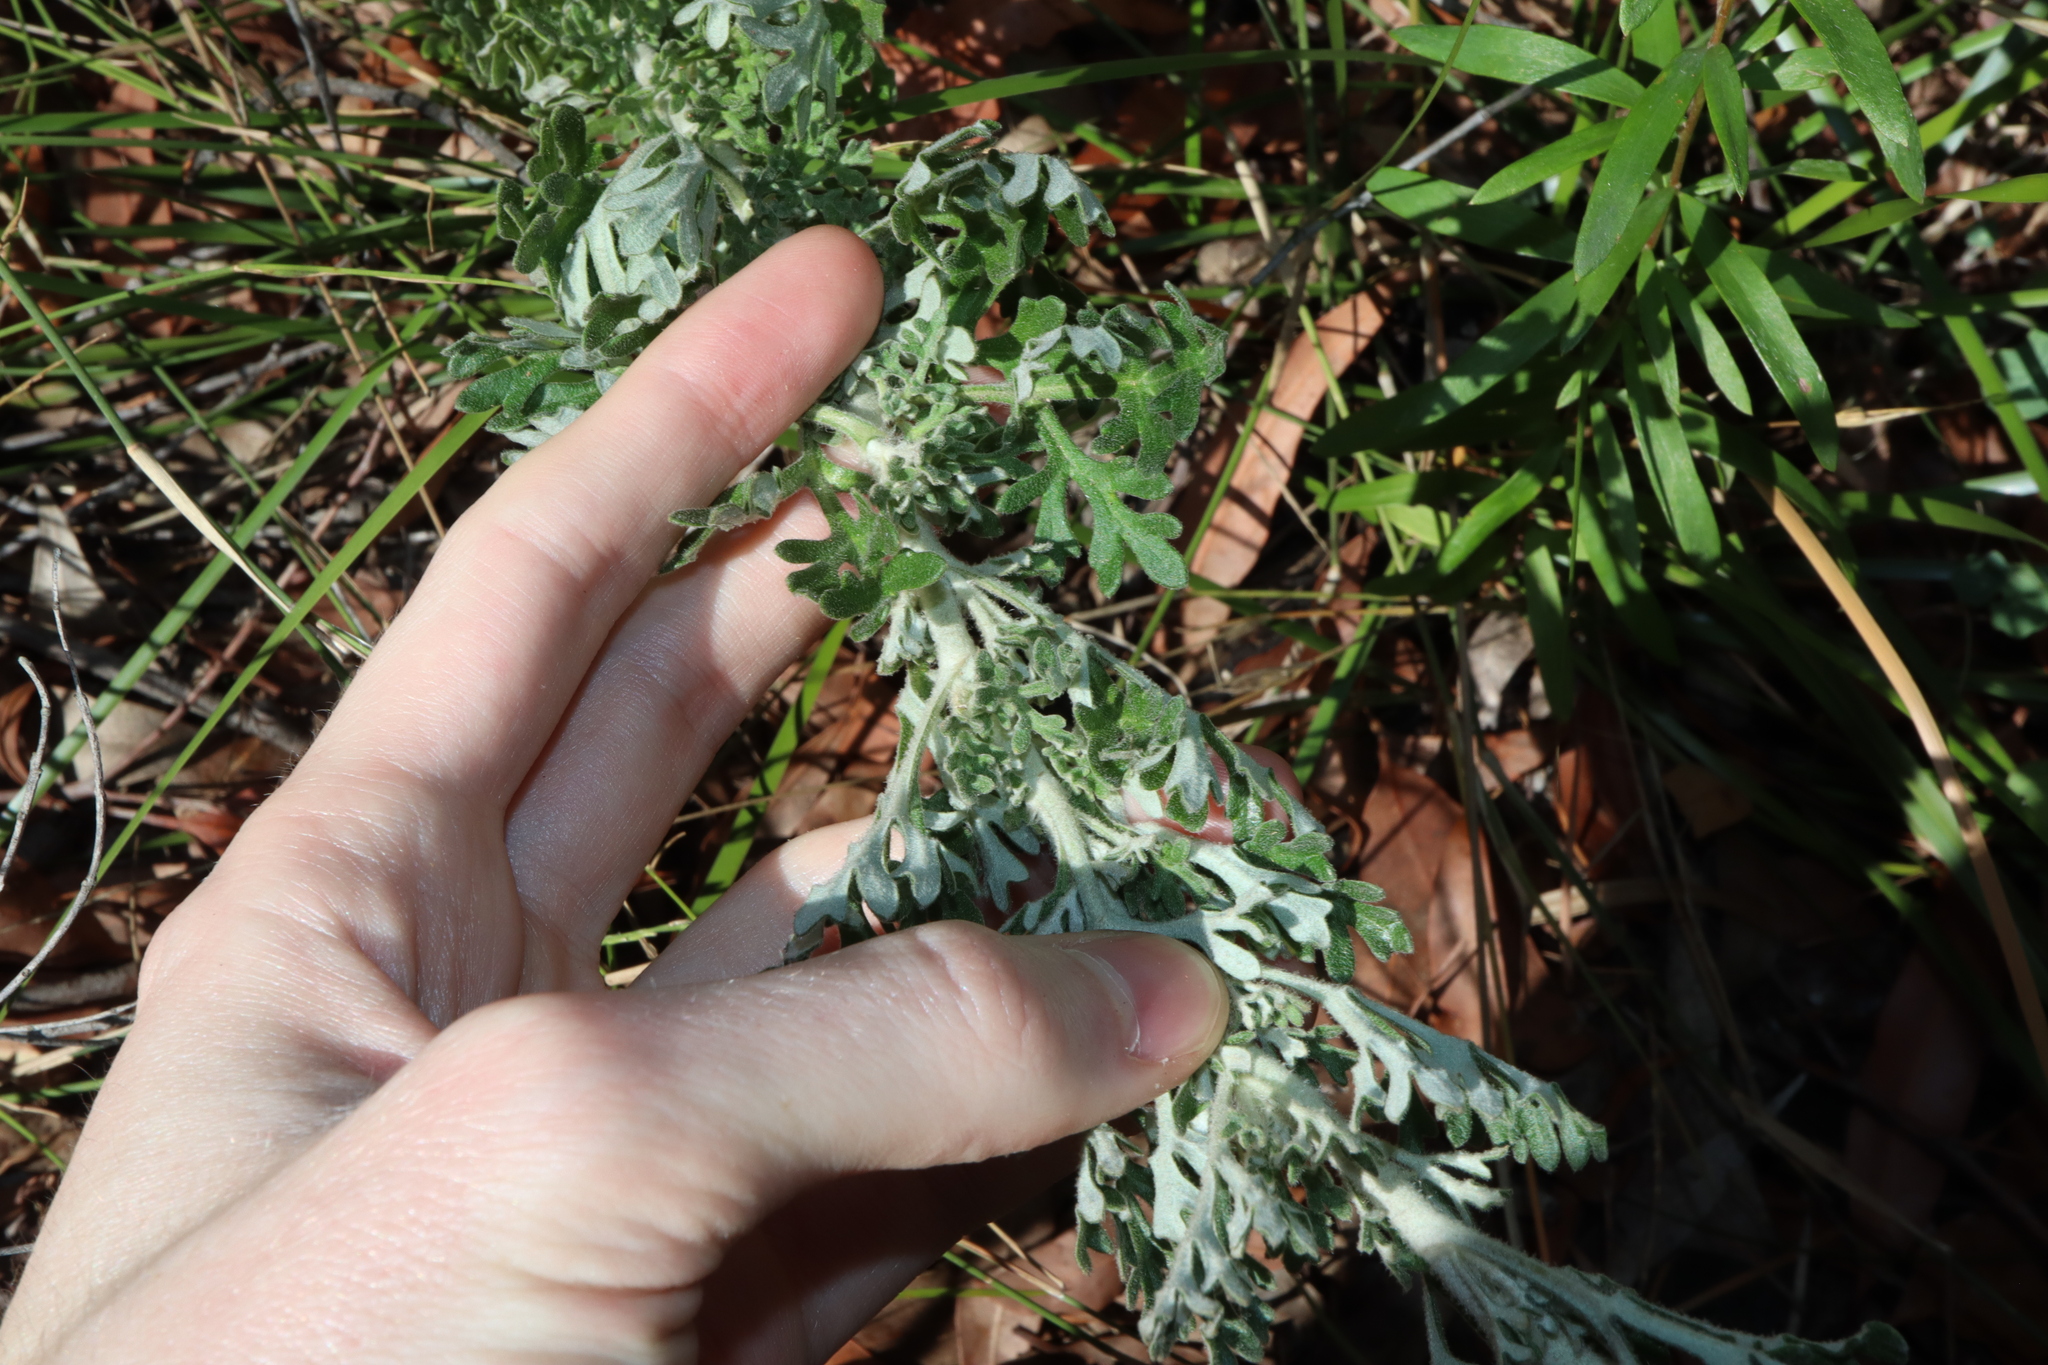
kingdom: Plantae
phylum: Tracheophyta
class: Magnoliopsida
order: Apiales
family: Apiaceae
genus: Actinotus
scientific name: Actinotus helianthi
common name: Flannel-flower
